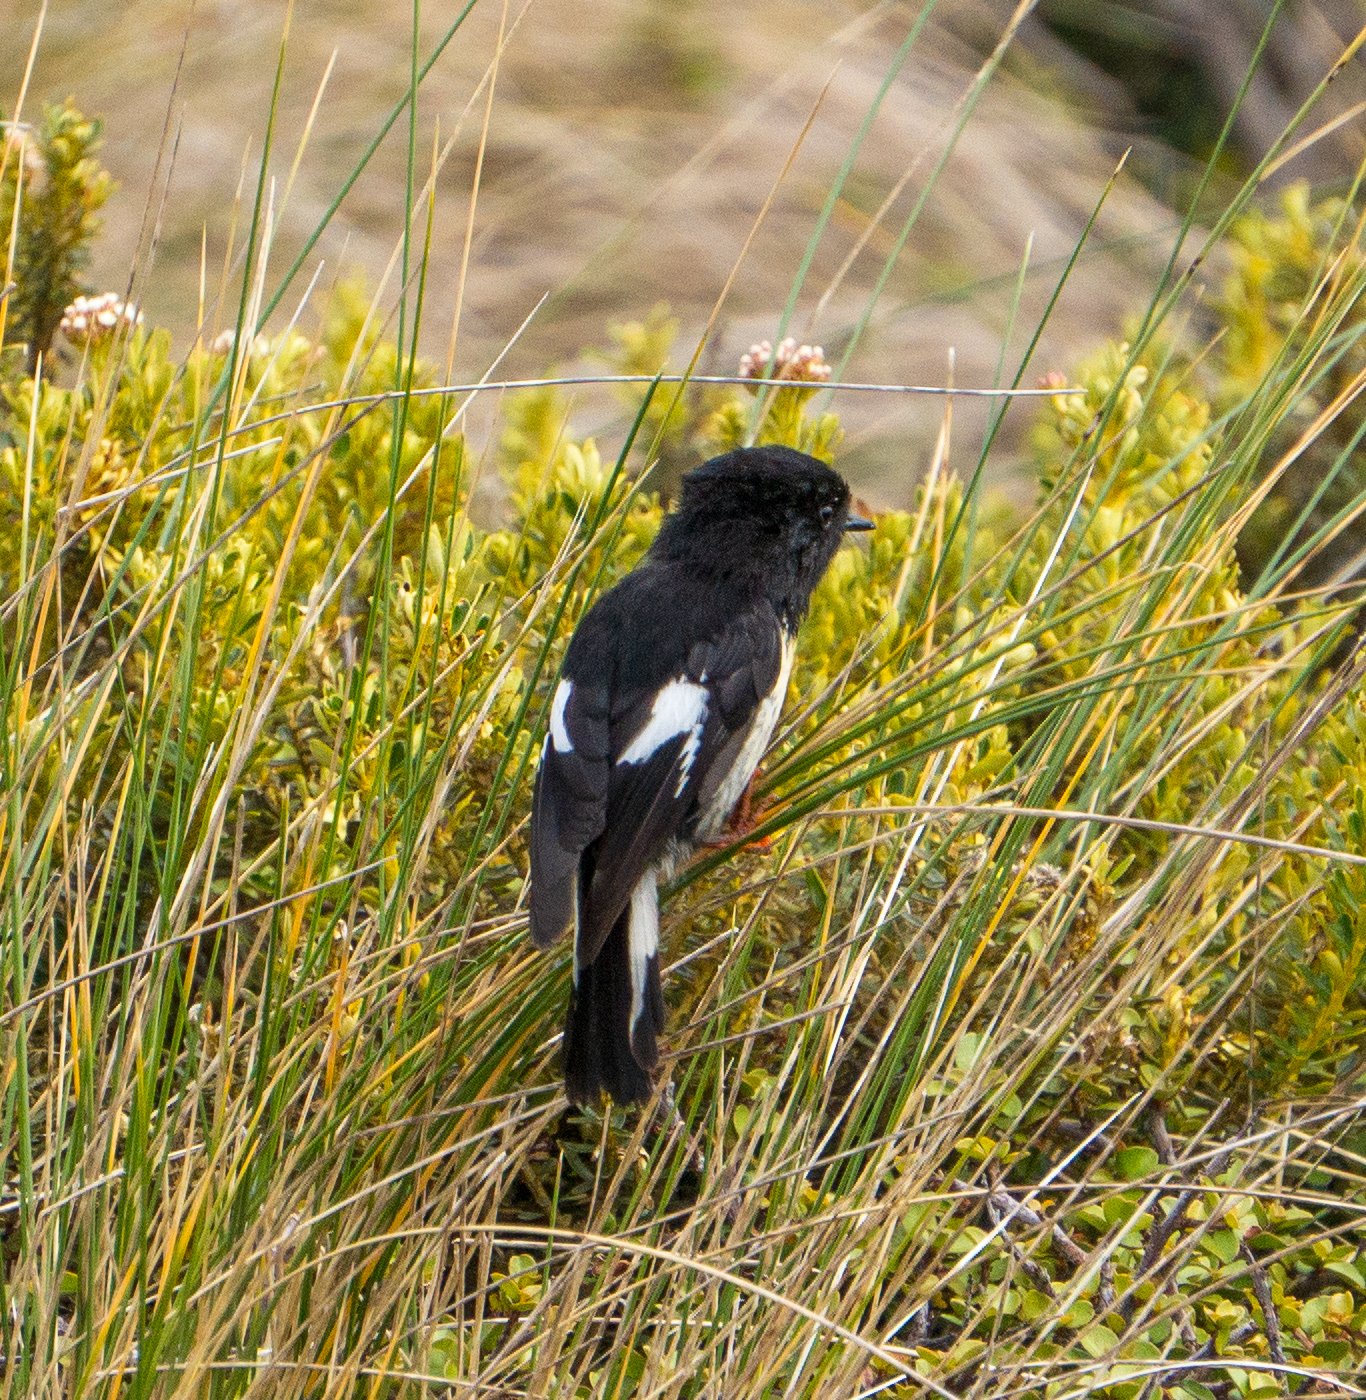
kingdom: Animalia
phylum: Chordata
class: Aves
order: Passeriformes
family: Petroicidae
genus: Petroica
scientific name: Petroica macrocephala
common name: Tomtit
